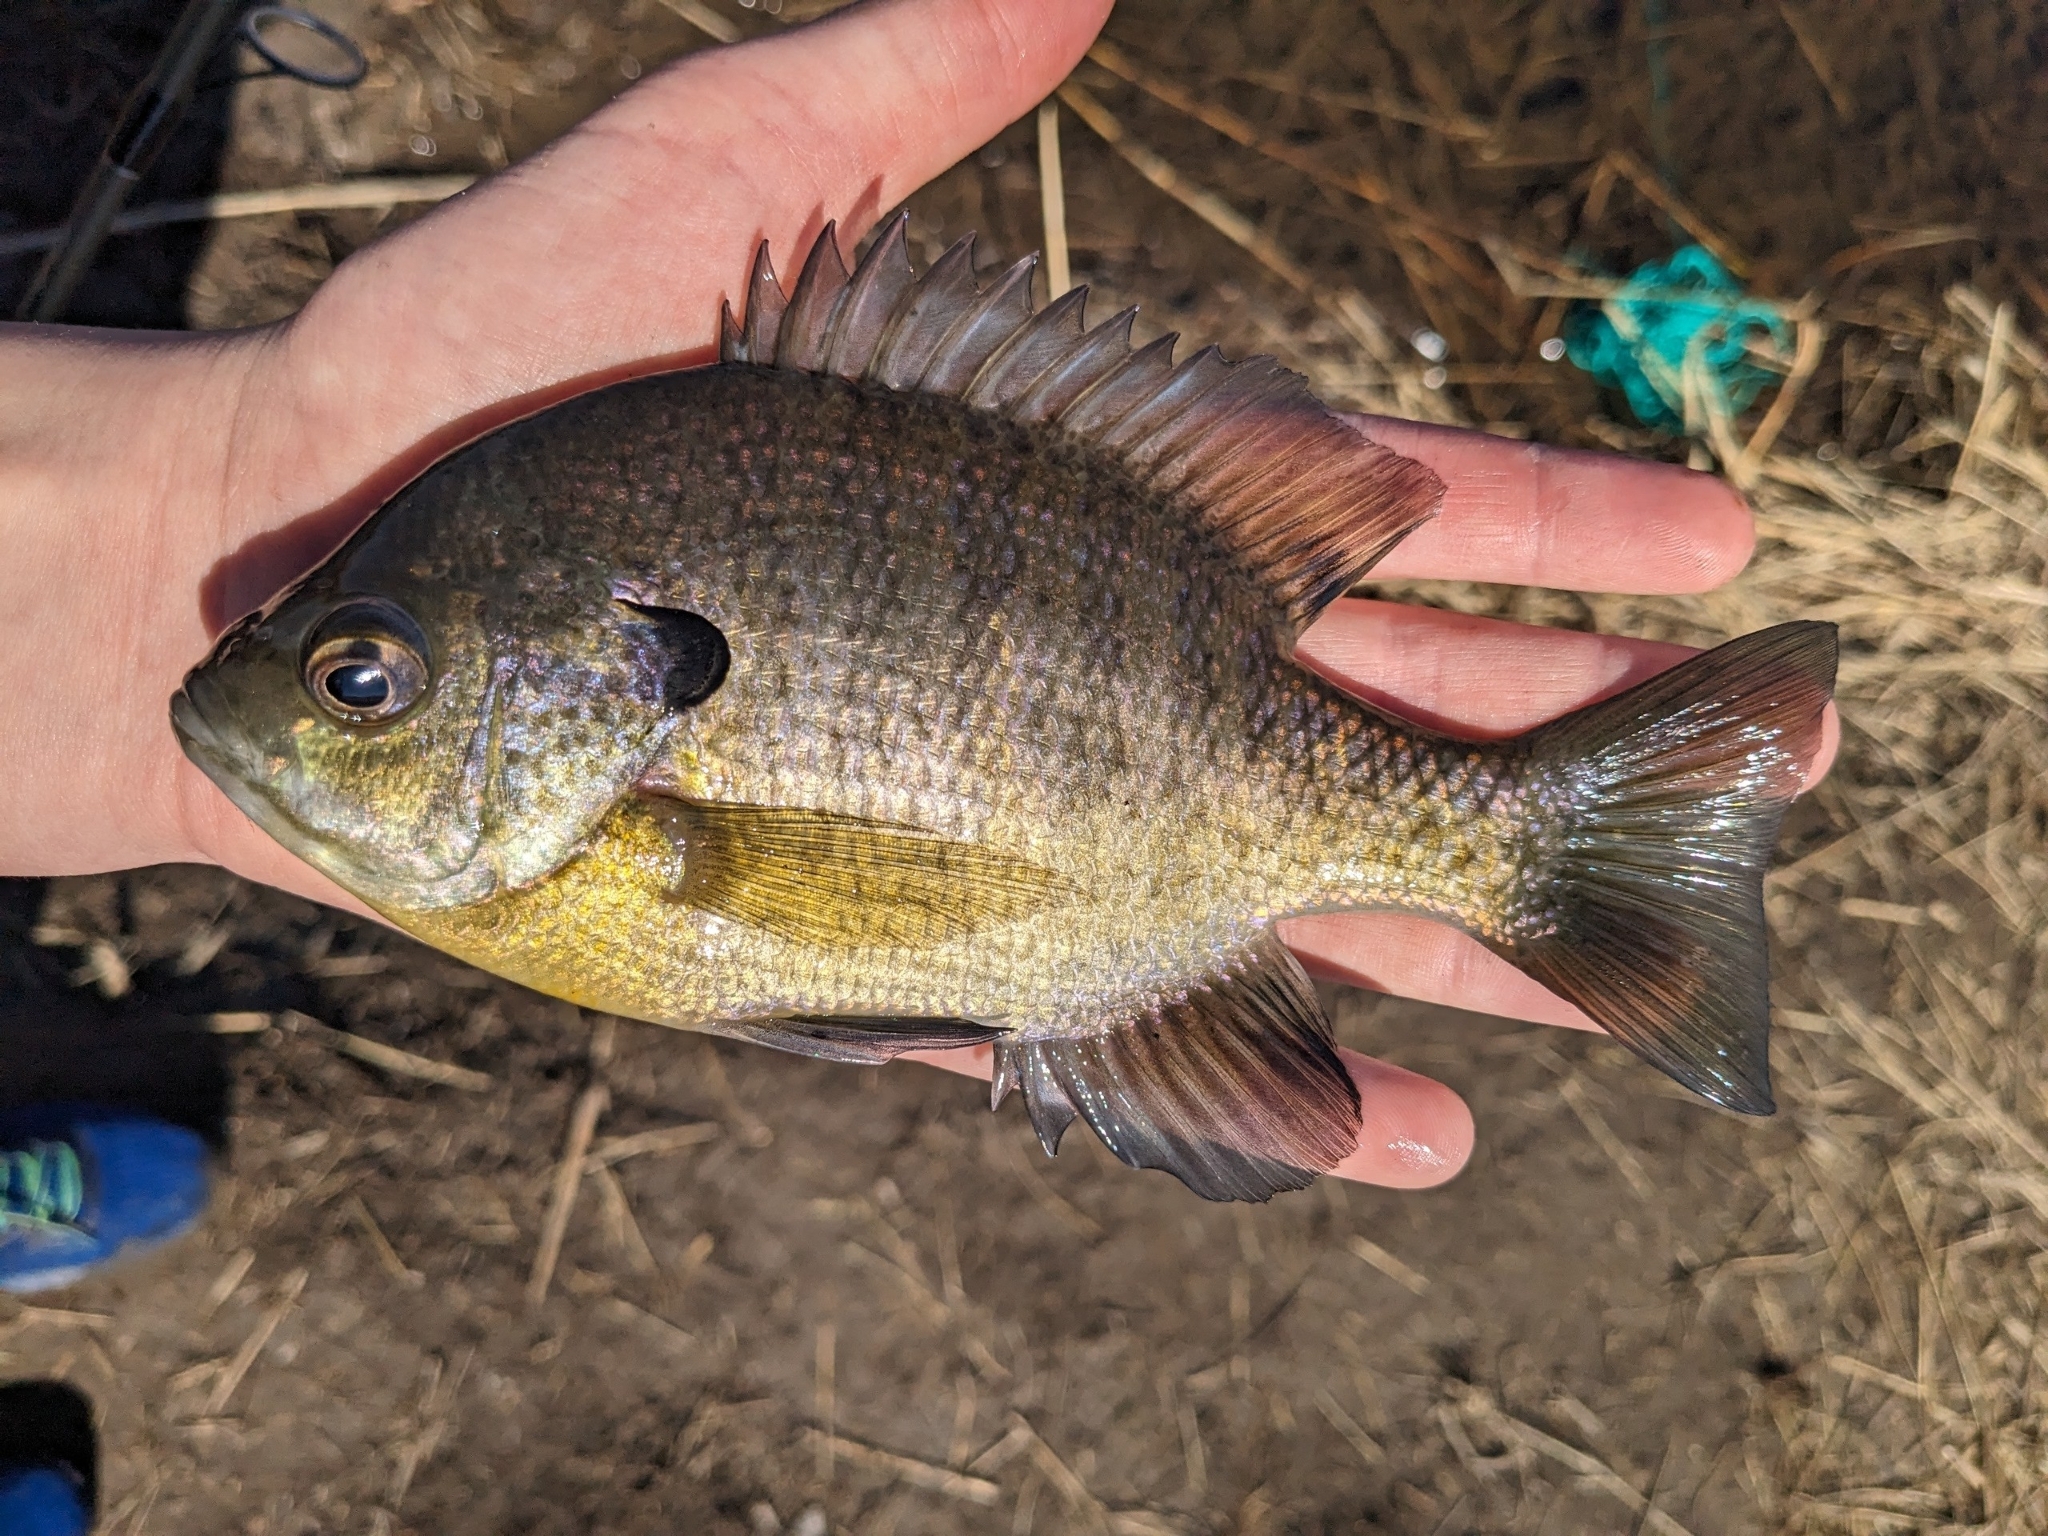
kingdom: Animalia
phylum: Chordata
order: Perciformes
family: Centrarchidae
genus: Lepomis
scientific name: Lepomis macrochirus
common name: Bluegill
